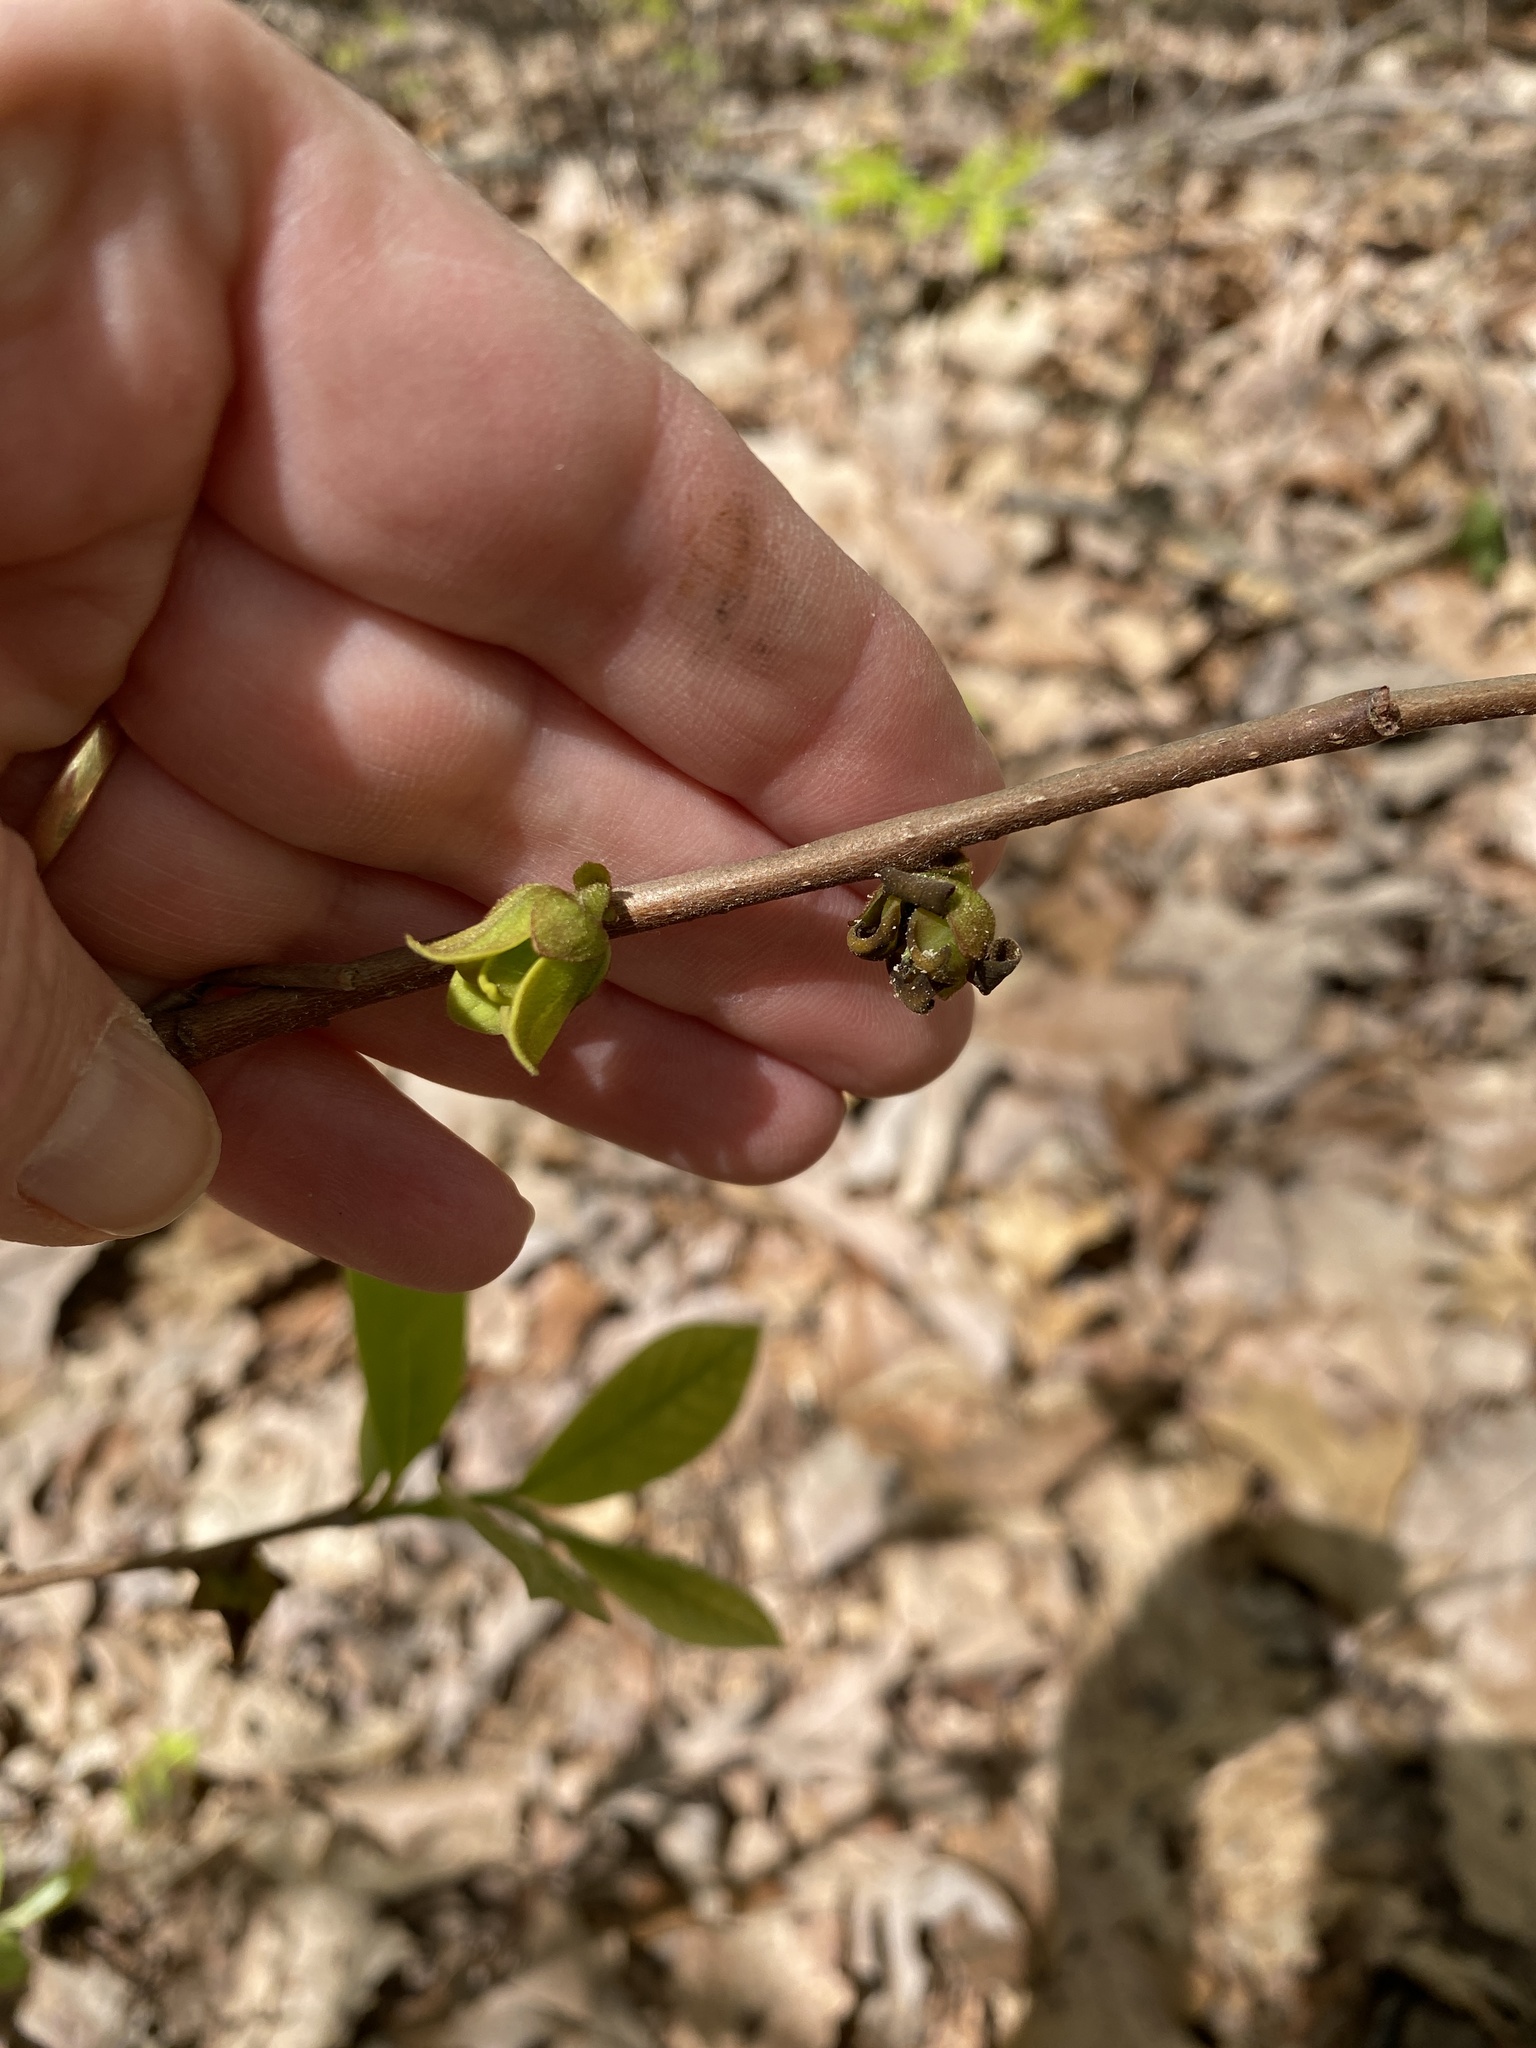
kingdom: Plantae
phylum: Tracheophyta
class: Magnoliopsida
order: Magnoliales
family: Annonaceae
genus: Asimina
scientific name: Asimina parviflora
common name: Dwarf pawpaw
